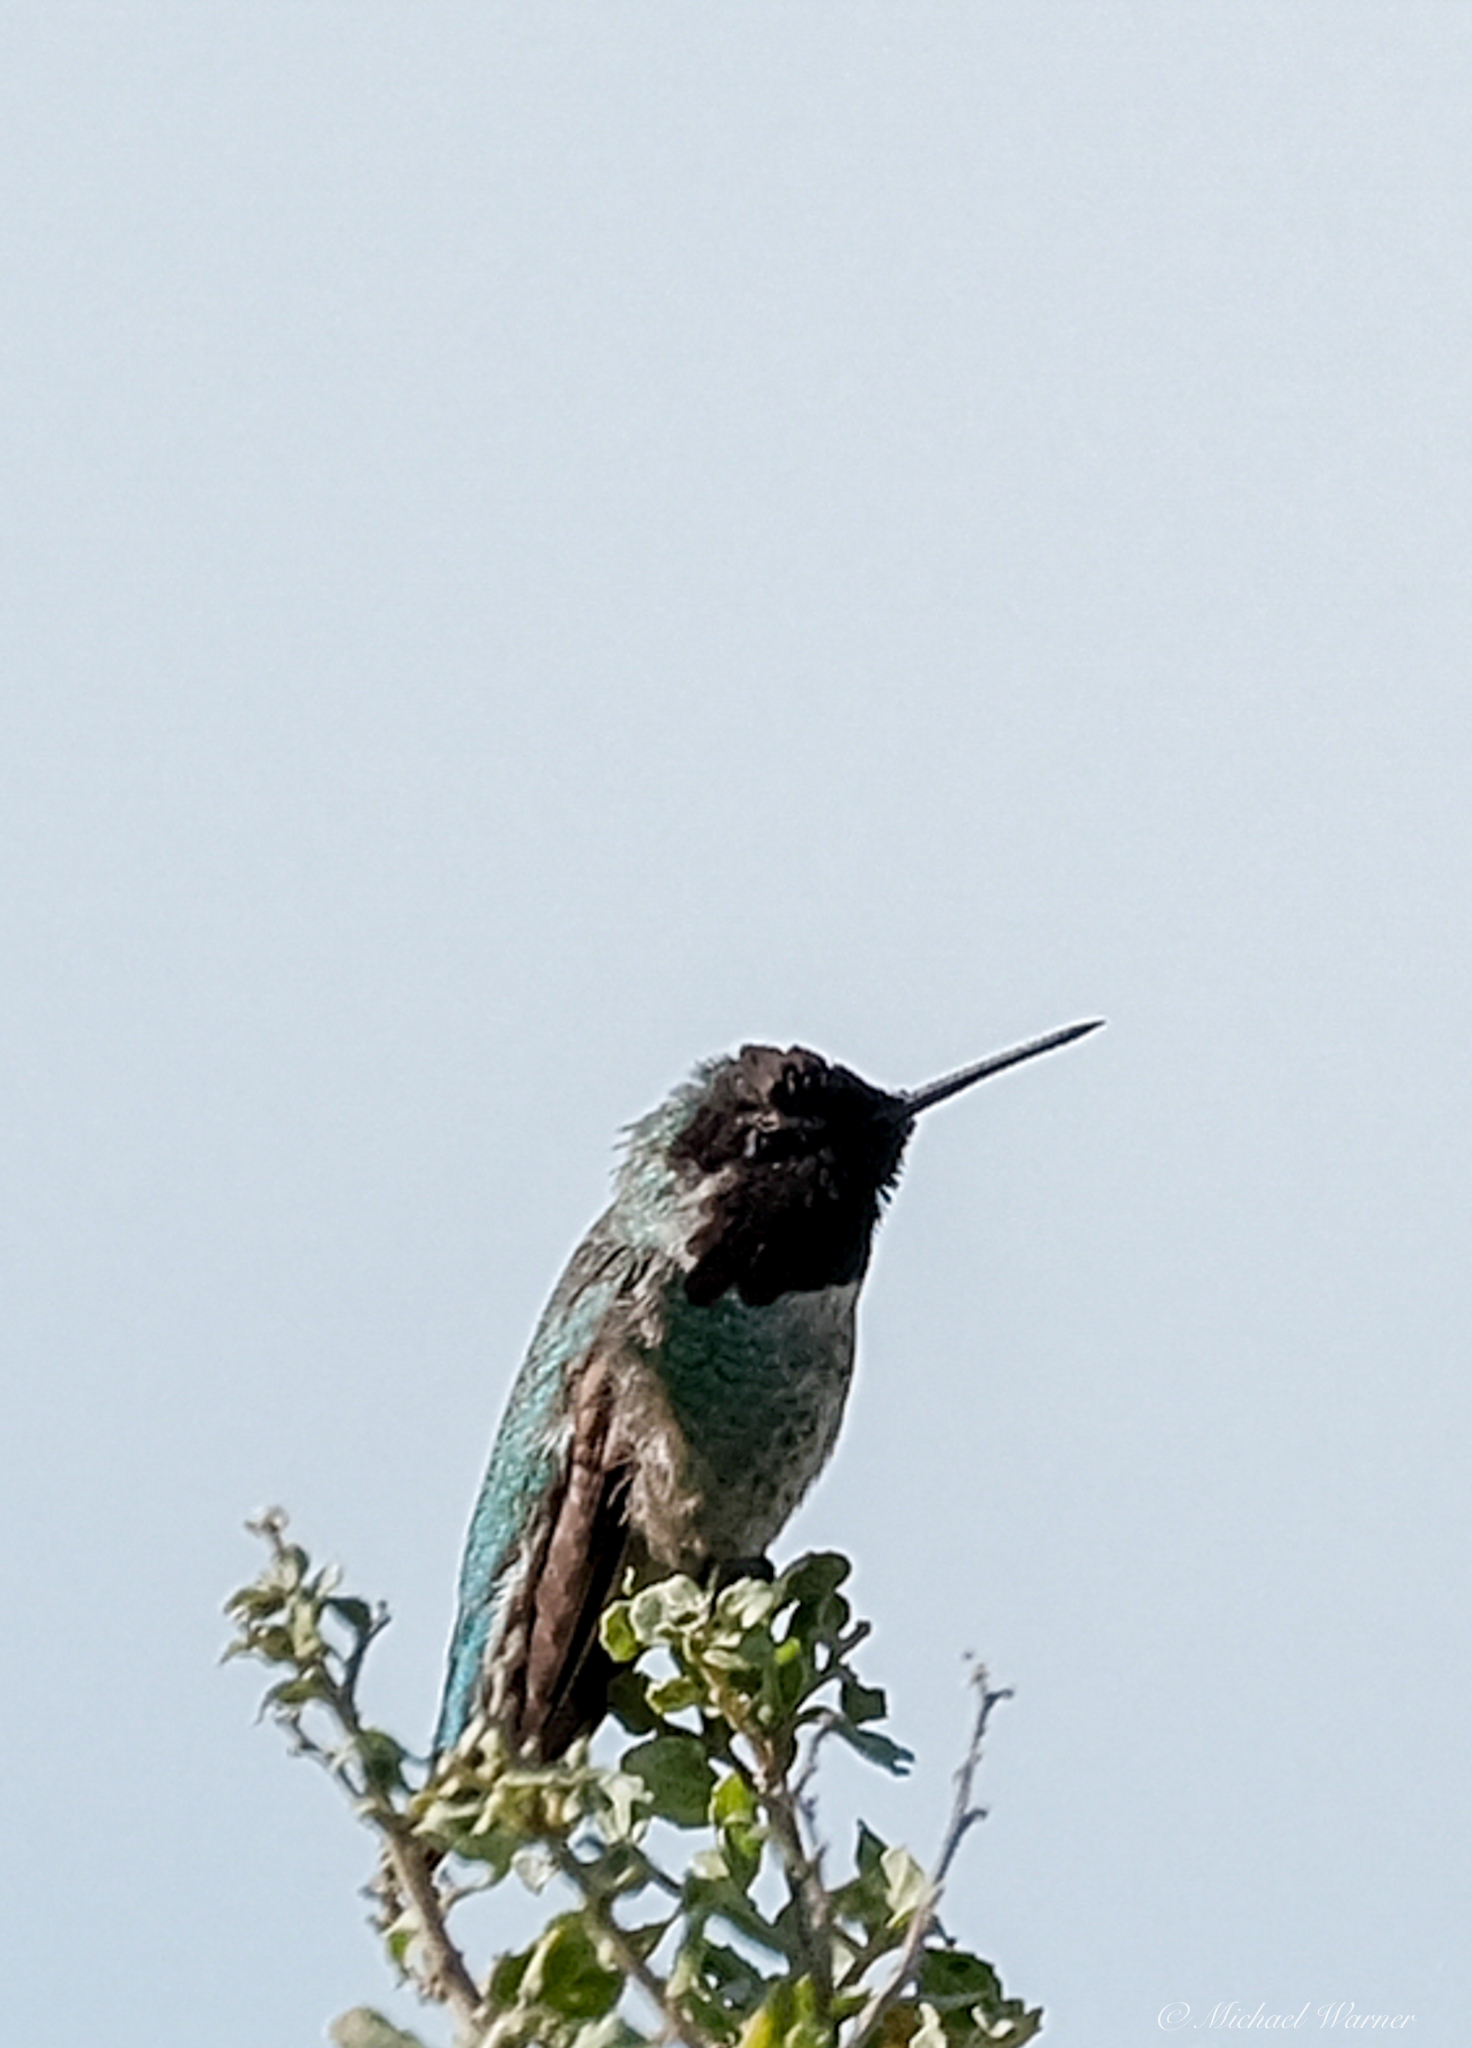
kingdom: Animalia
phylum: Chordata
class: Aves
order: Apodiformes
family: Trochilidae
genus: Calypte
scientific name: Calypte anna
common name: Anna's hummingbird
